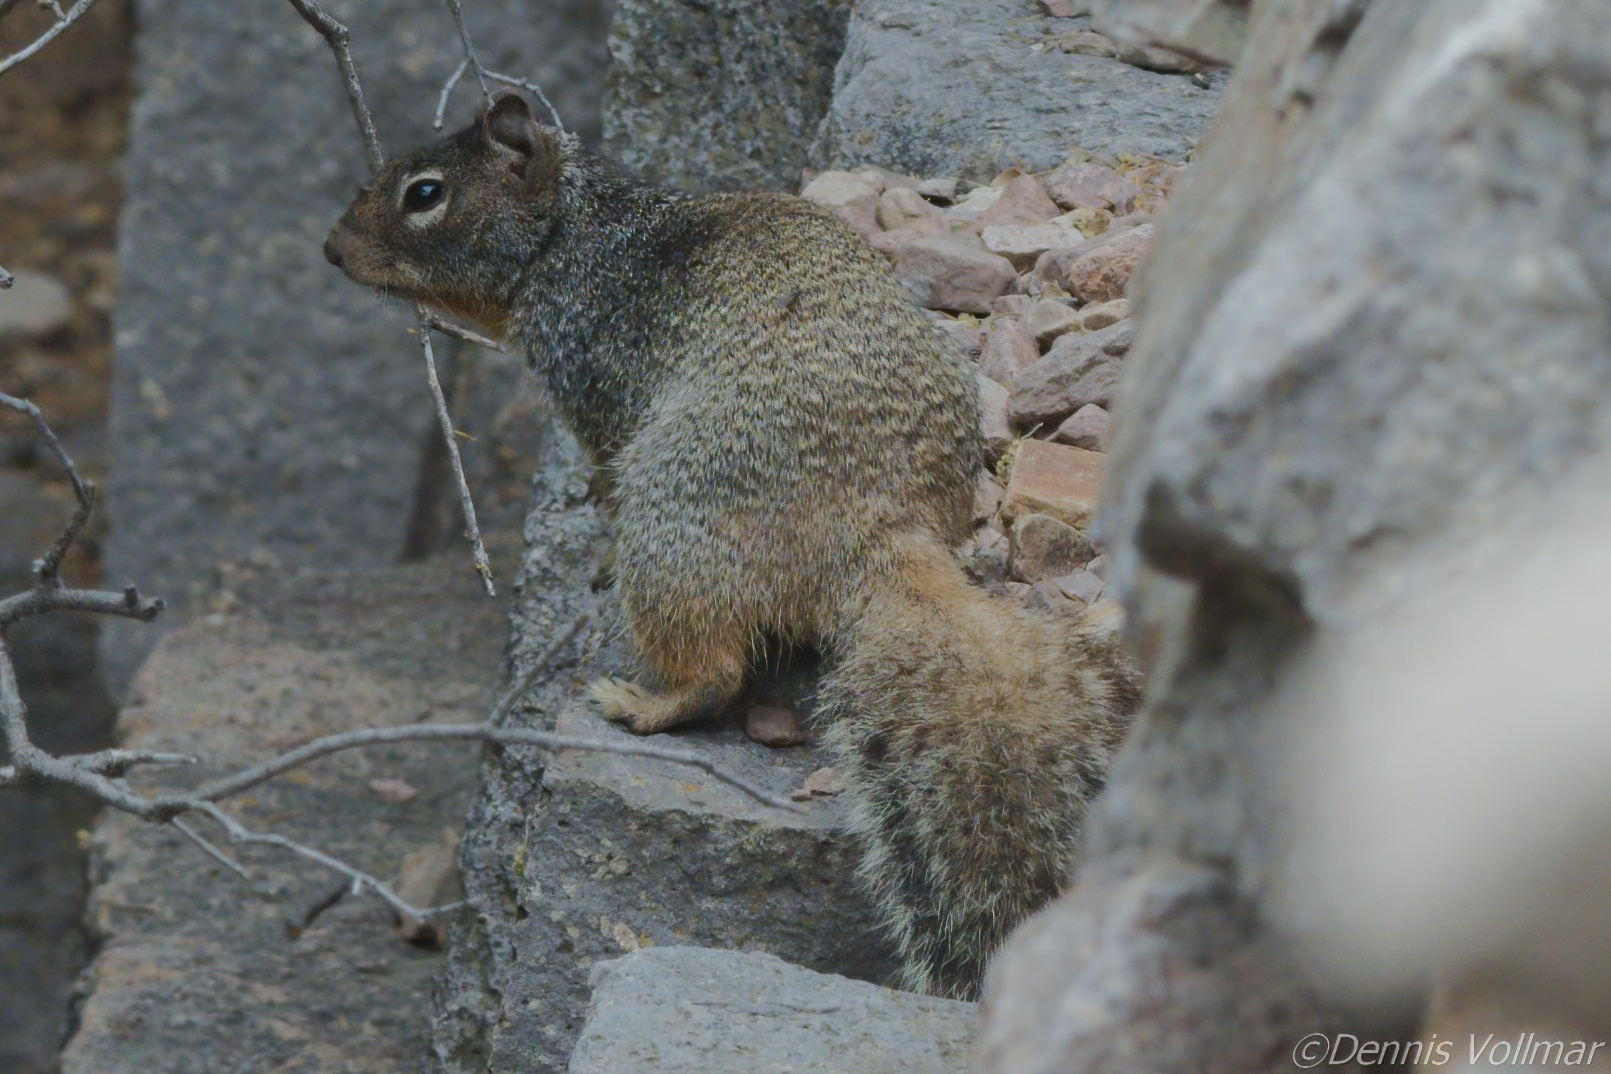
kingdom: Animalia
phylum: Chordata
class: Mammalia
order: Rodentia
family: Sciuridae
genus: Otospermophilus
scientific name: Otospermophilus variegatus
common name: Rock squirrel
